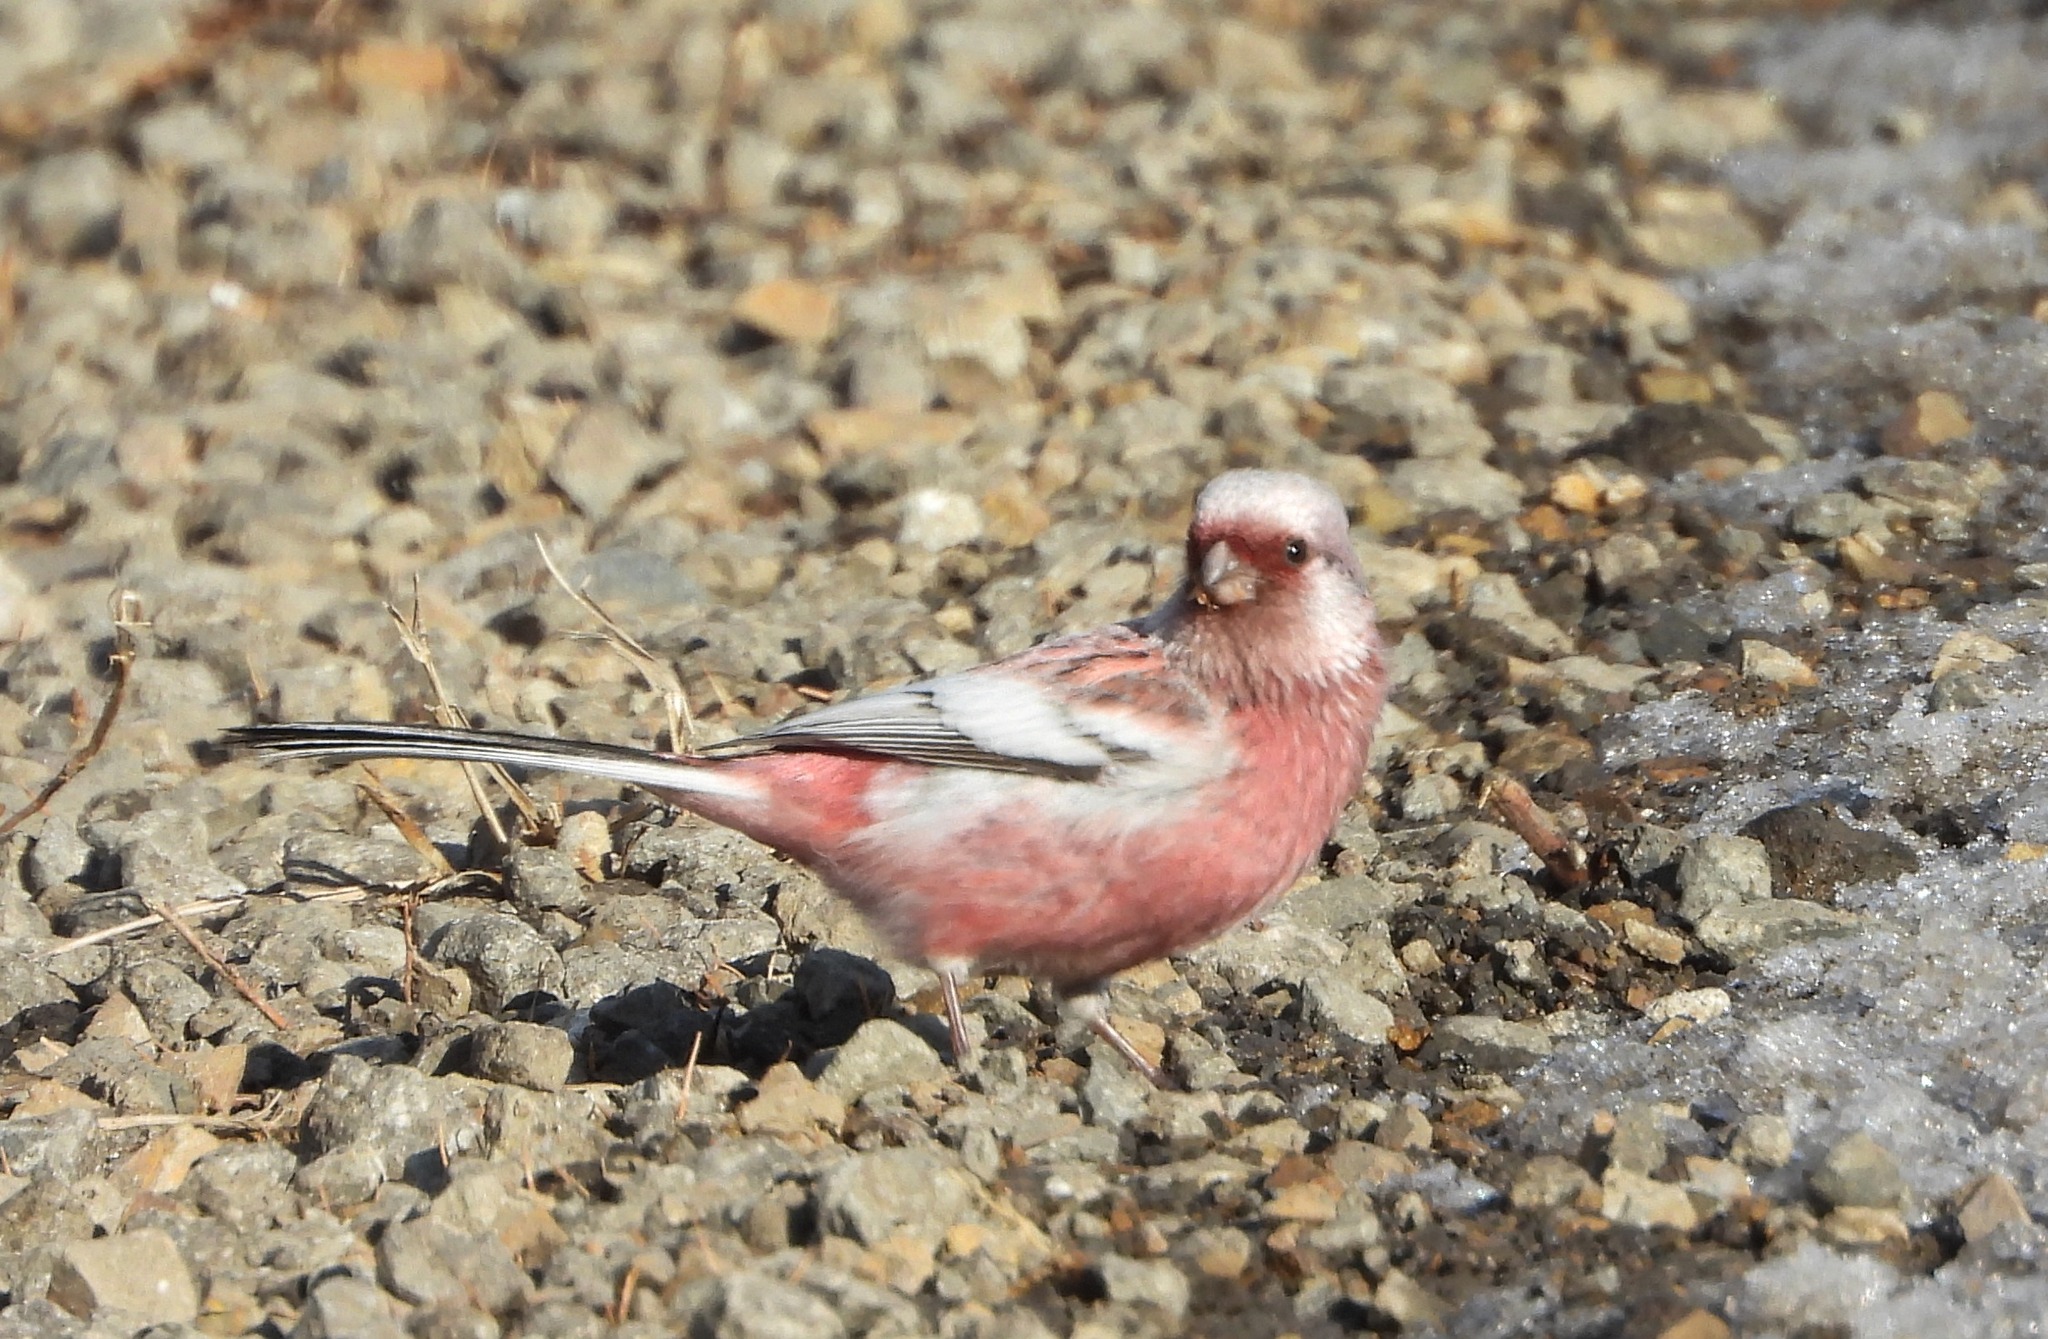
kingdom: Animalia
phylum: Chordata
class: Aves
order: Passeriformes
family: Fringillidae
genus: Carpodacus
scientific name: Carpodacus sibiricus
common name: Long-tailed rosefinch
